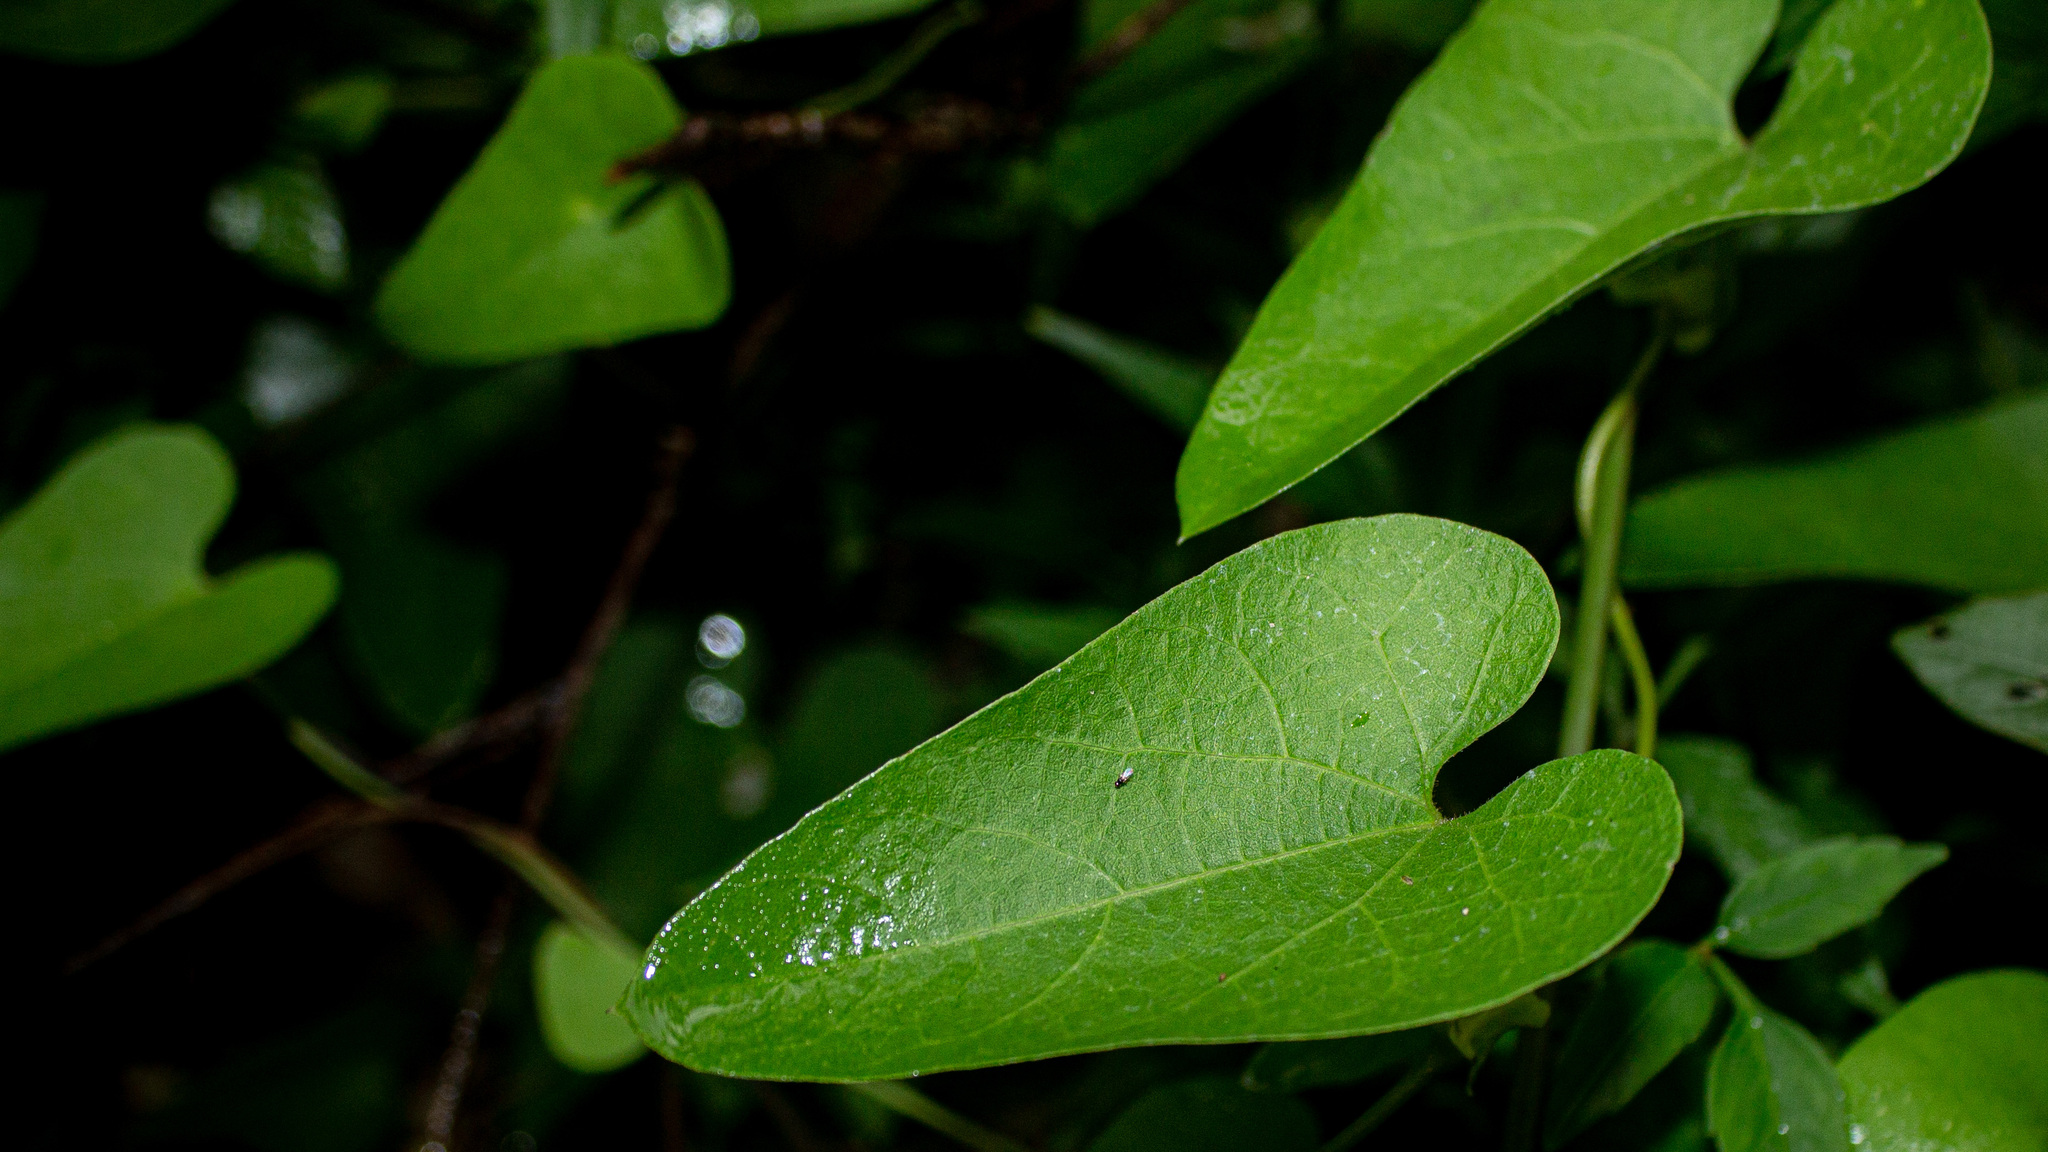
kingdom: Plantae
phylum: Tracheophyta
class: Magnoliopsida
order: Piperales
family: Aristolochiaceae
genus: Aristolochia
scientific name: Aristolochia anguicida
